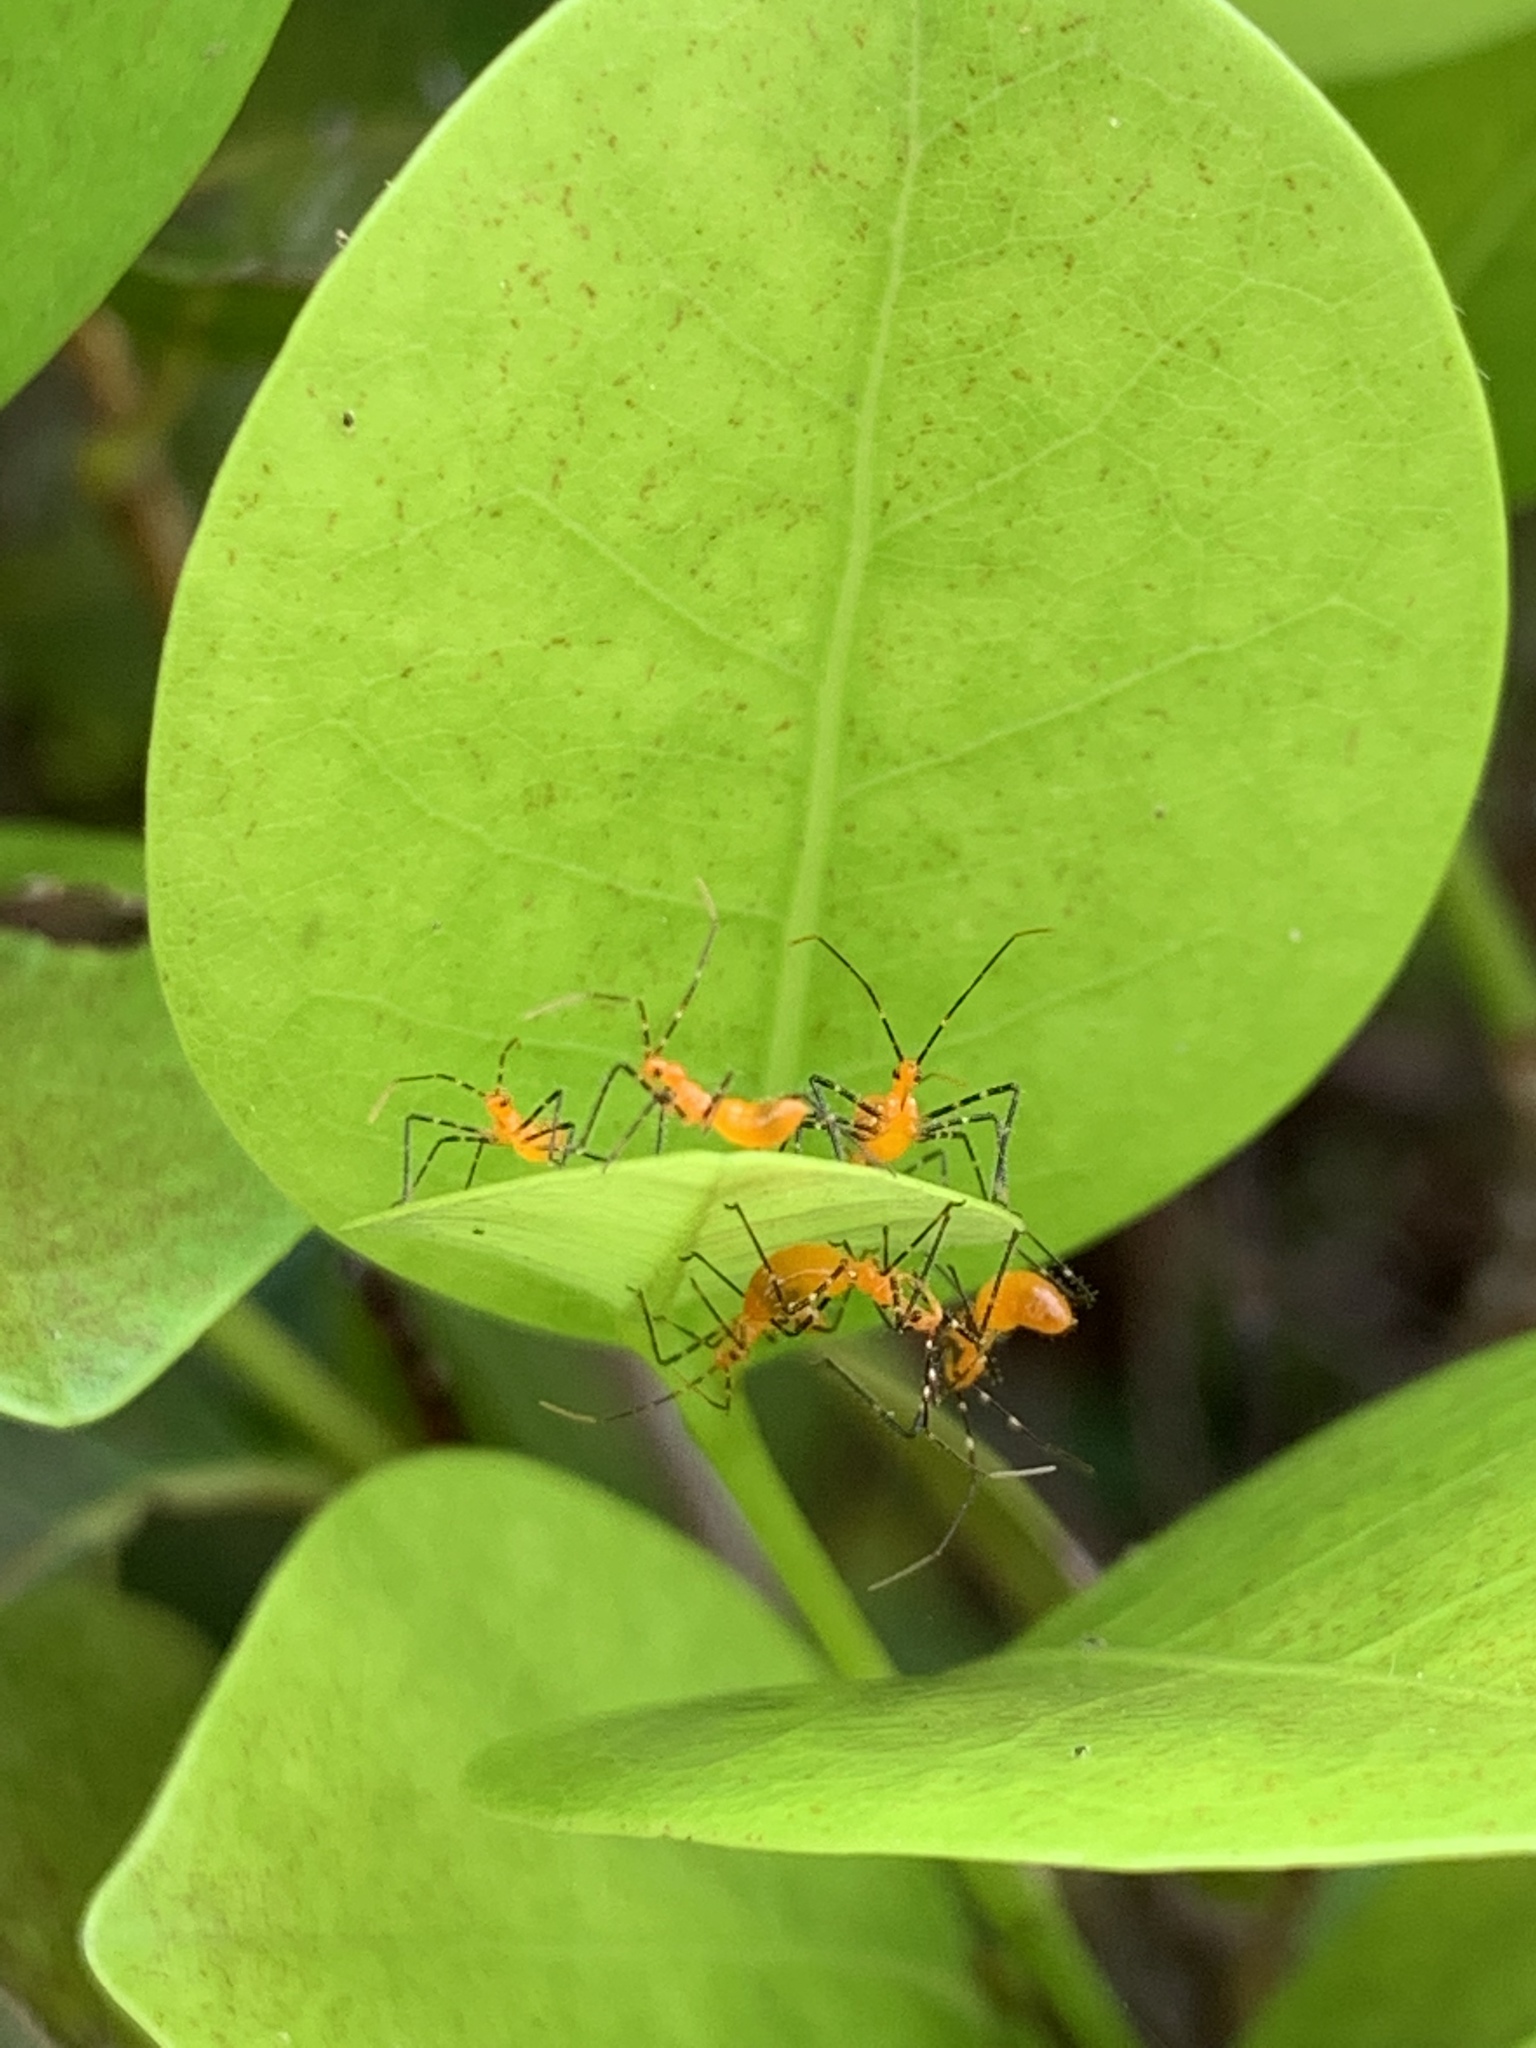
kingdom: Animalia
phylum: Arthropoda
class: Insecta
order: Hemiptera
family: Reduviidae
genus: Zelus
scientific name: Zelus longipes
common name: Milkweed assassin bug
